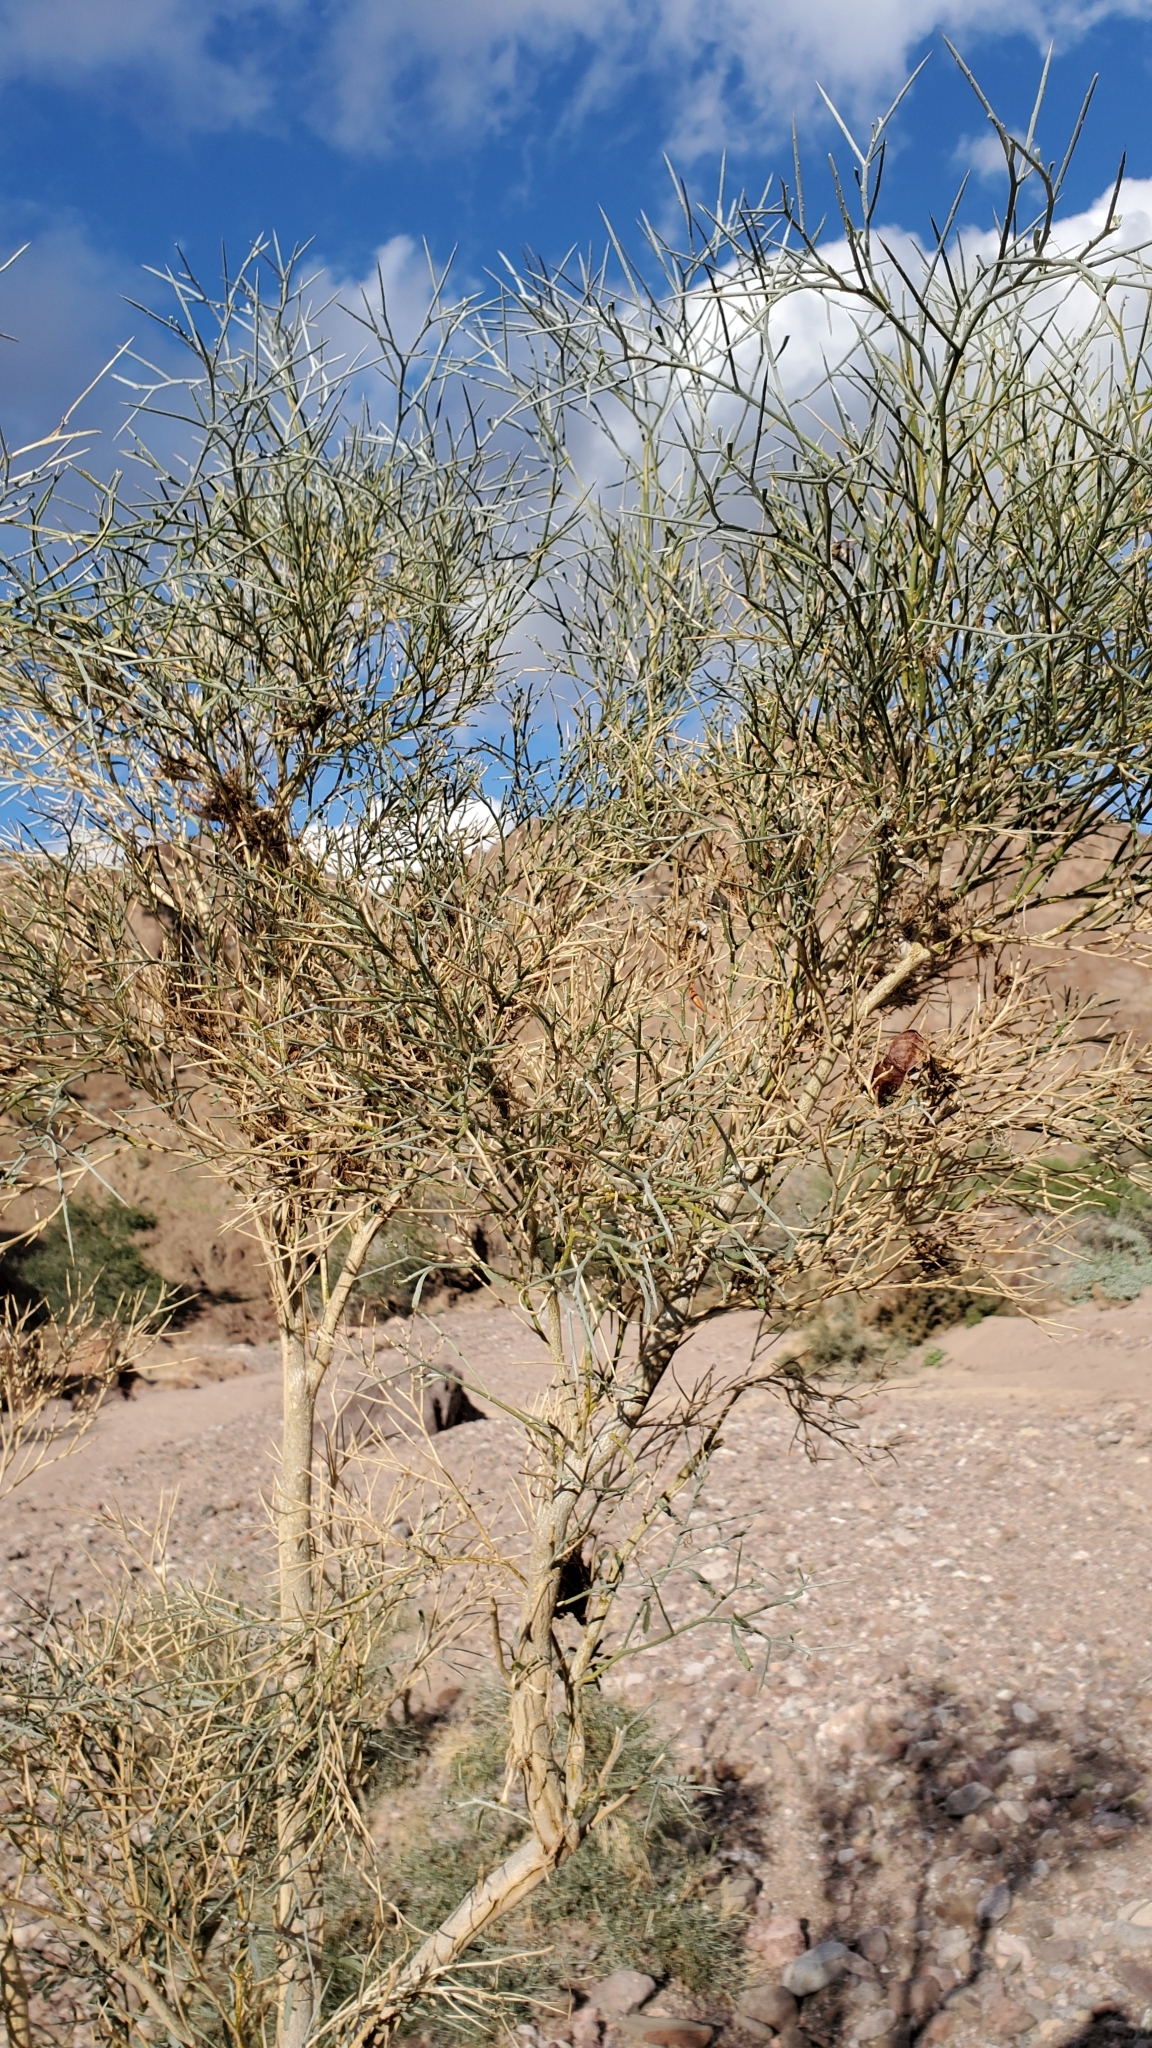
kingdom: Plantae
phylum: Tracheophyta
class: Magnoliopsida
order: Fabales
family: Fabaceae
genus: Psorothamnus
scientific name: Psorothamnus spinosus
